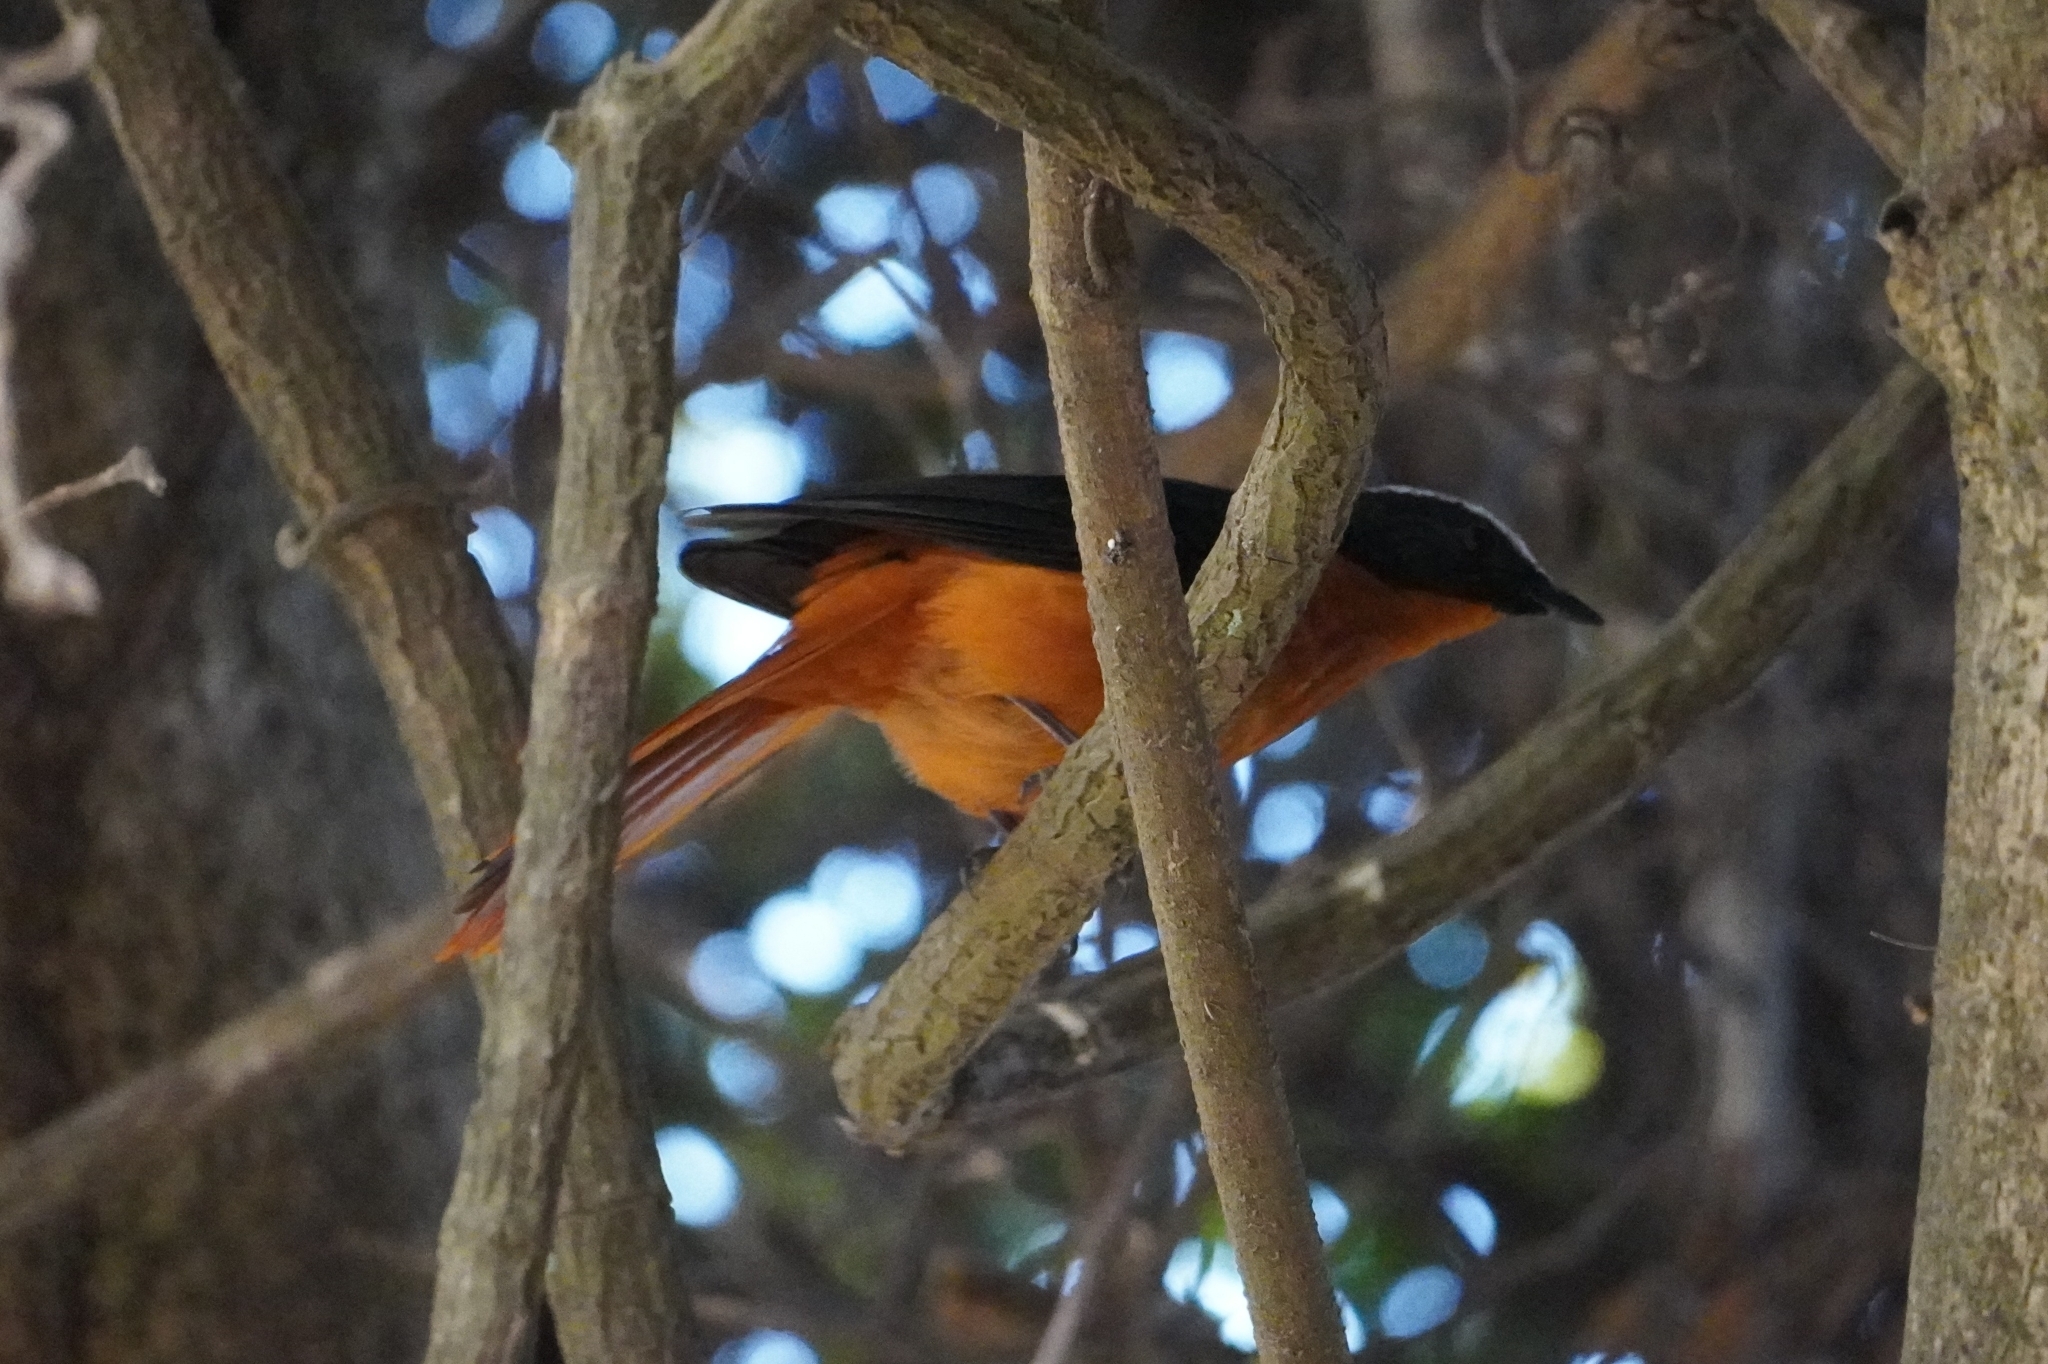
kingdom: Animalia
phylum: Chordata
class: Aves
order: Passeriformes
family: Muscicapidae
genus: Cossypha
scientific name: Cossypha albicapillus
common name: White-crowned robin-chat
